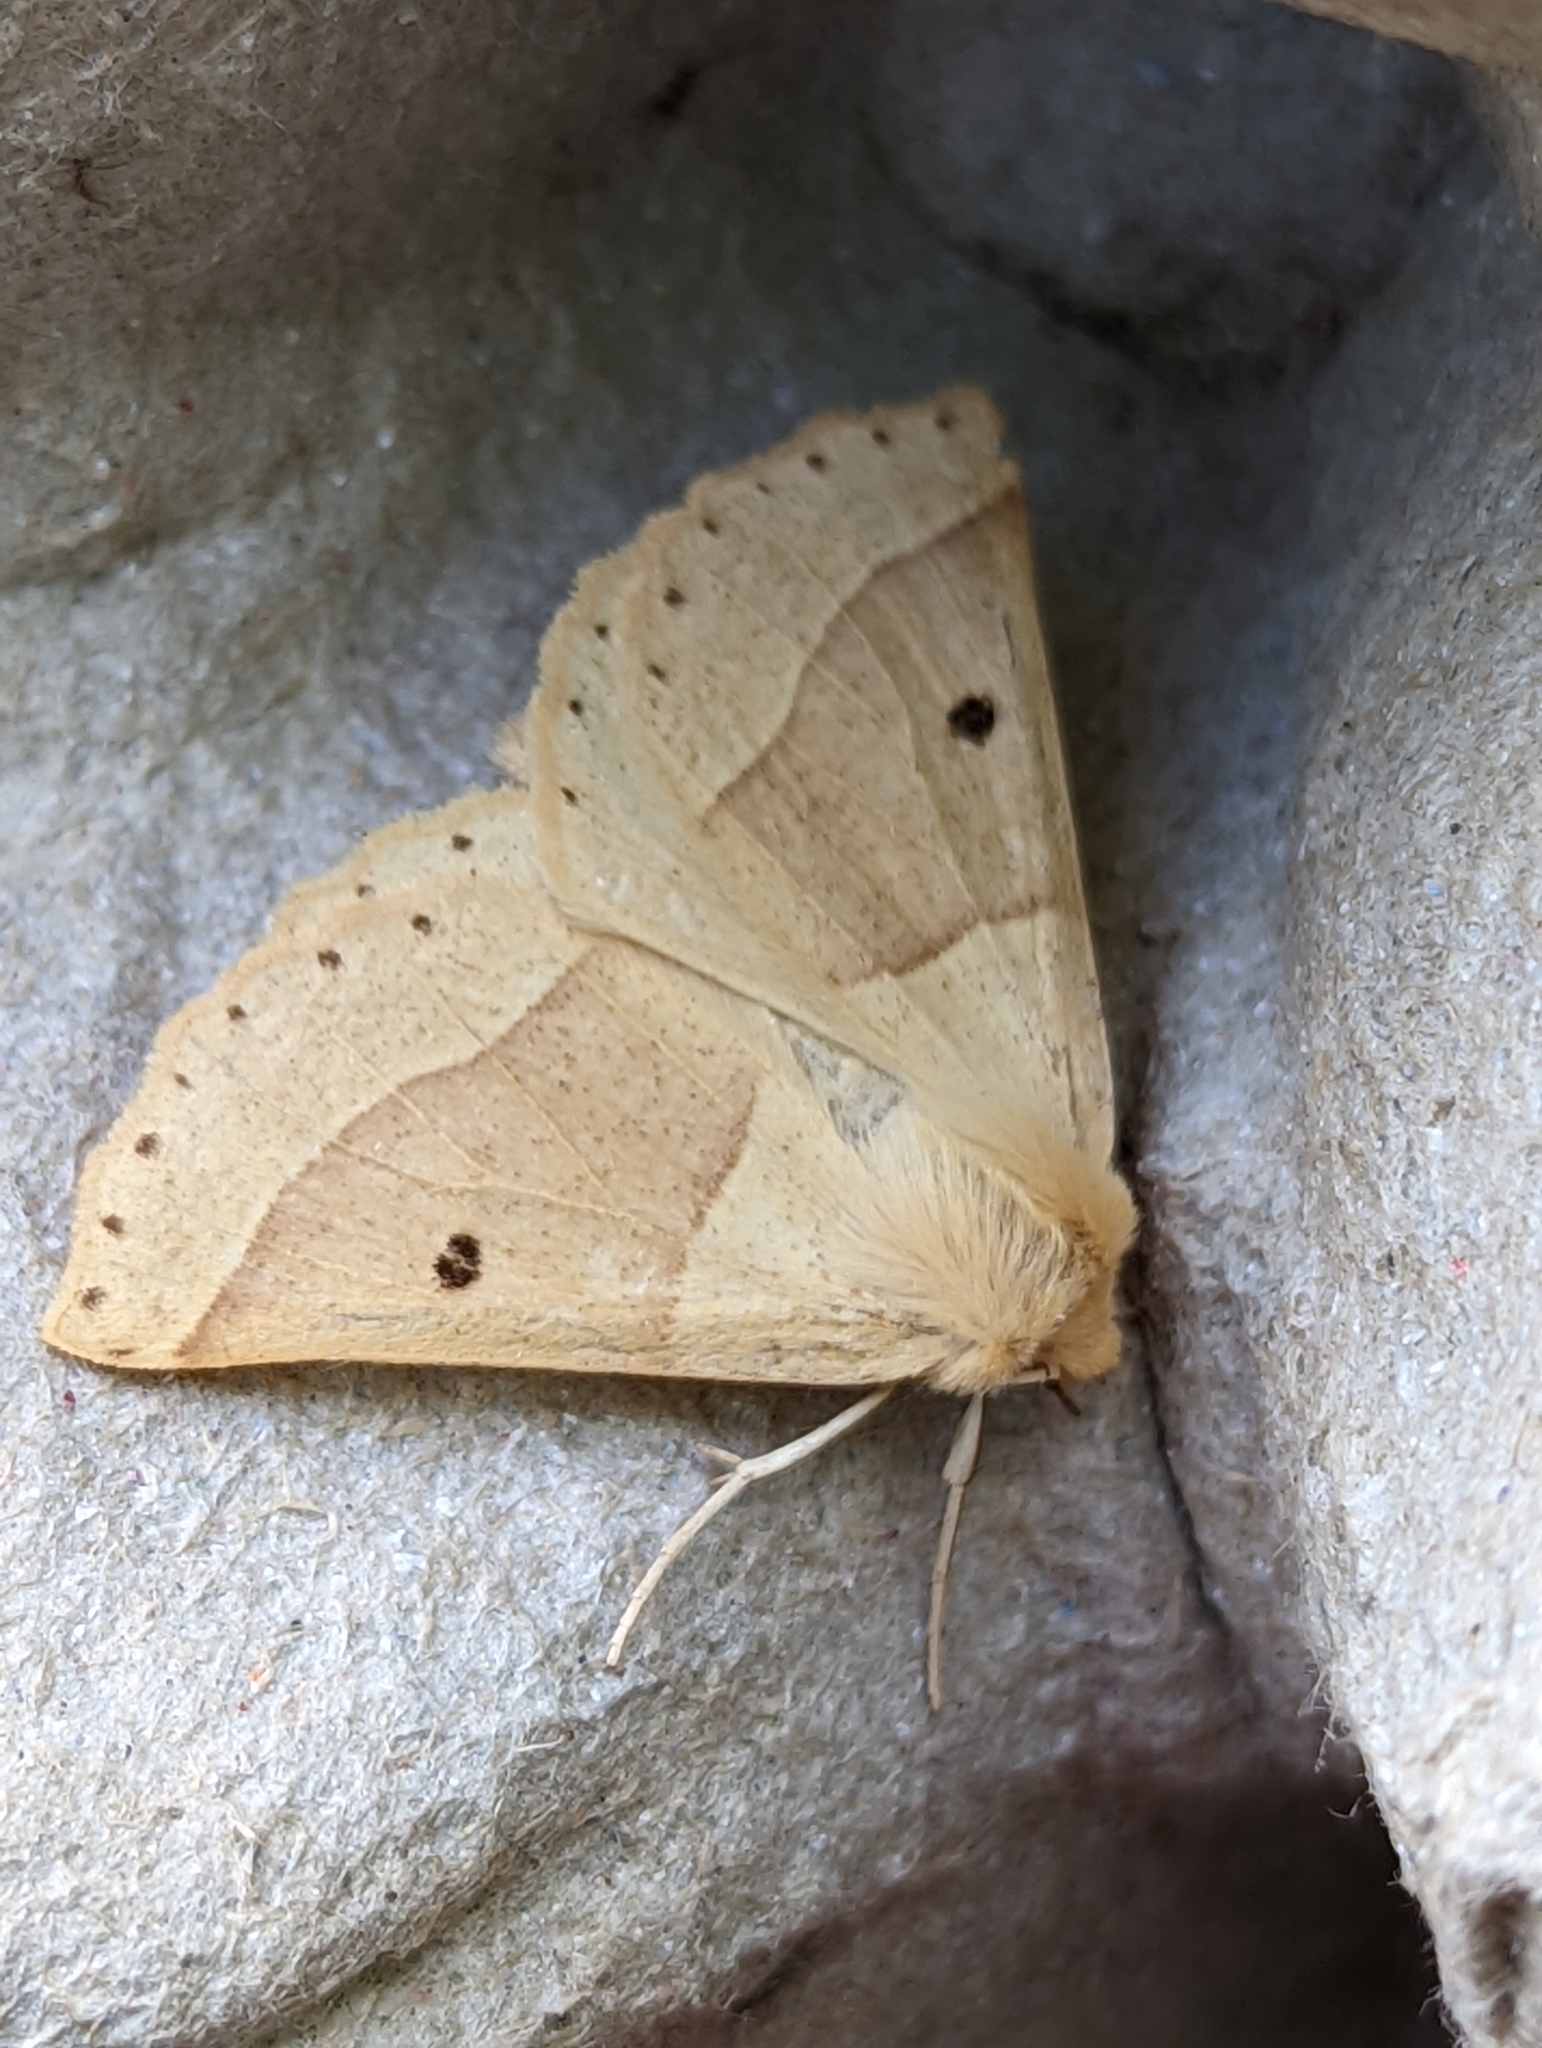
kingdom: Animalia
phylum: Arthropoda
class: Insecta
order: Lepidoptera
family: Geometridae
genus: Crocallis
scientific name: Crocallis elinguaria
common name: Scalloped oak
